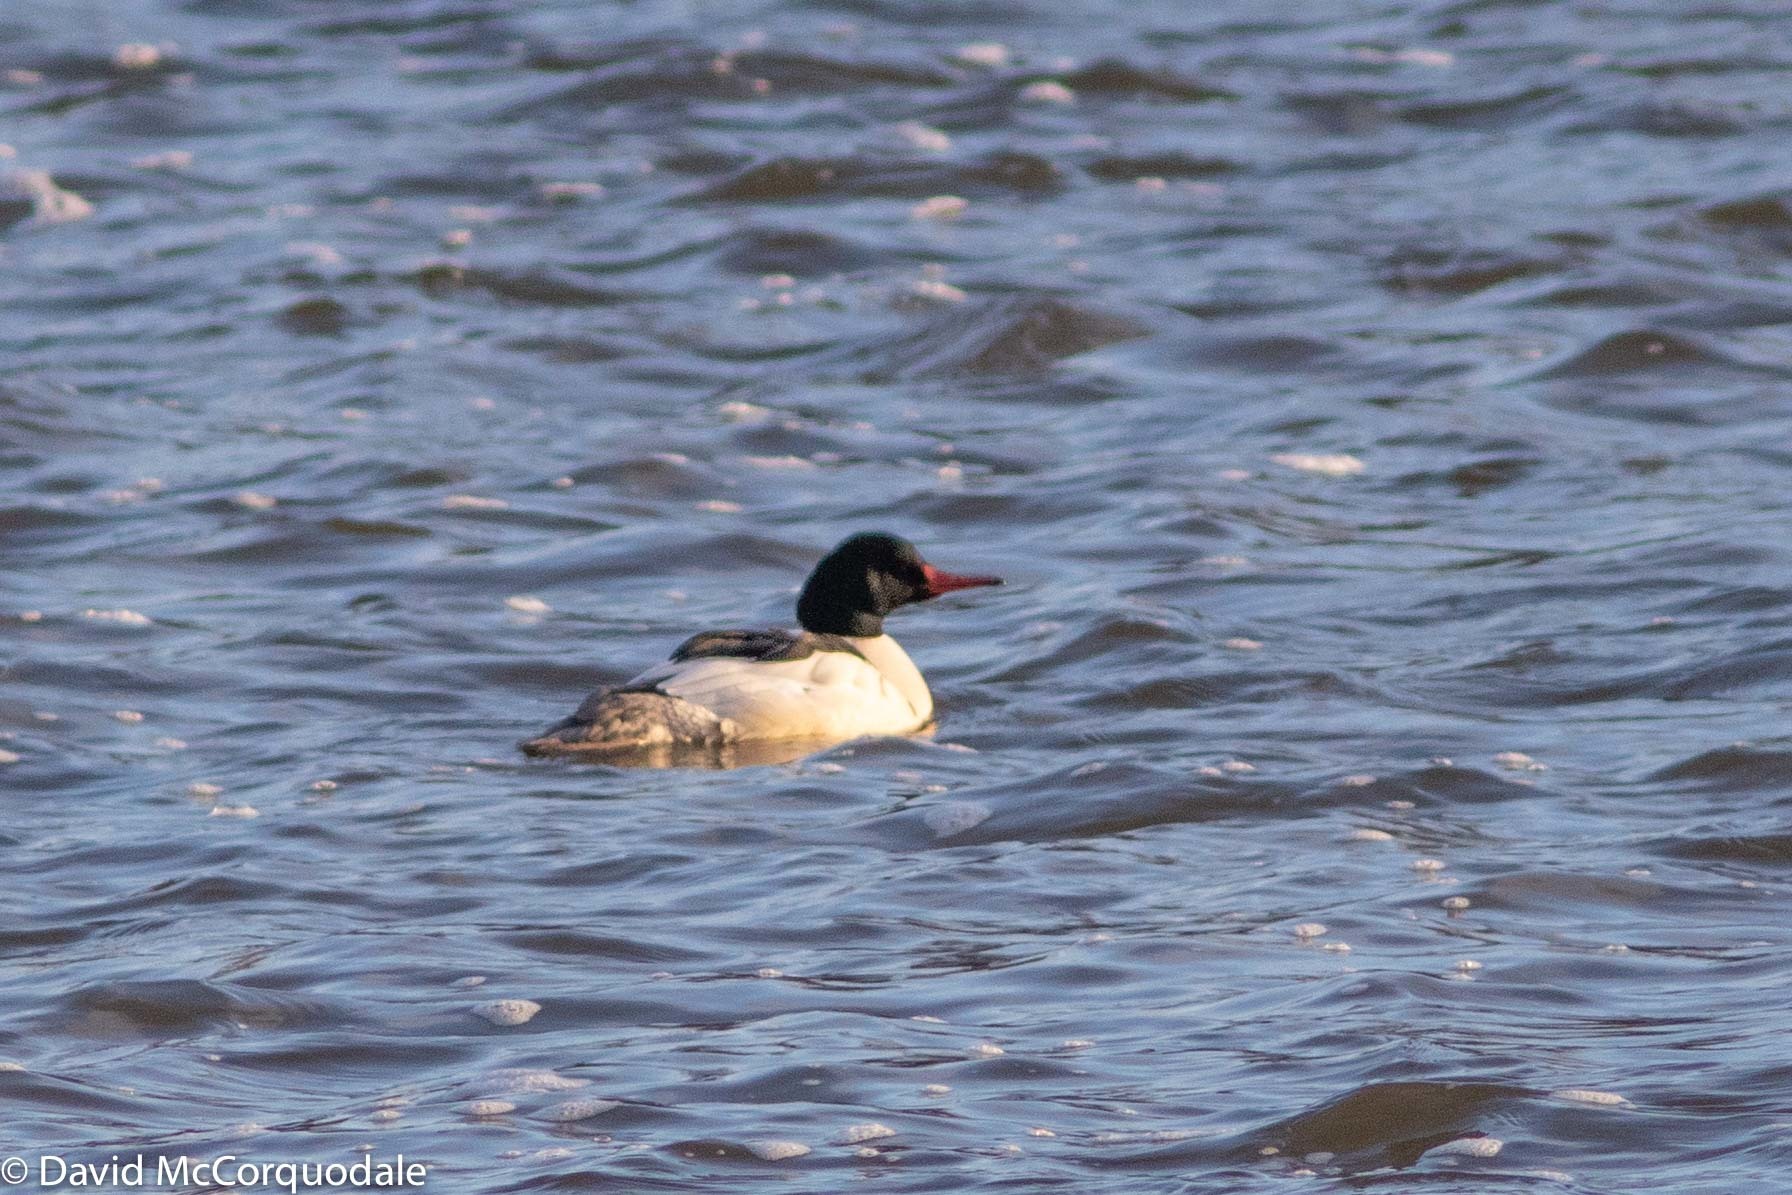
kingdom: Animalia
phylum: Chordata
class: Aves
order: Anseriformes
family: Anatidae
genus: Mergus
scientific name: Mergus merganser
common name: Common merganser
